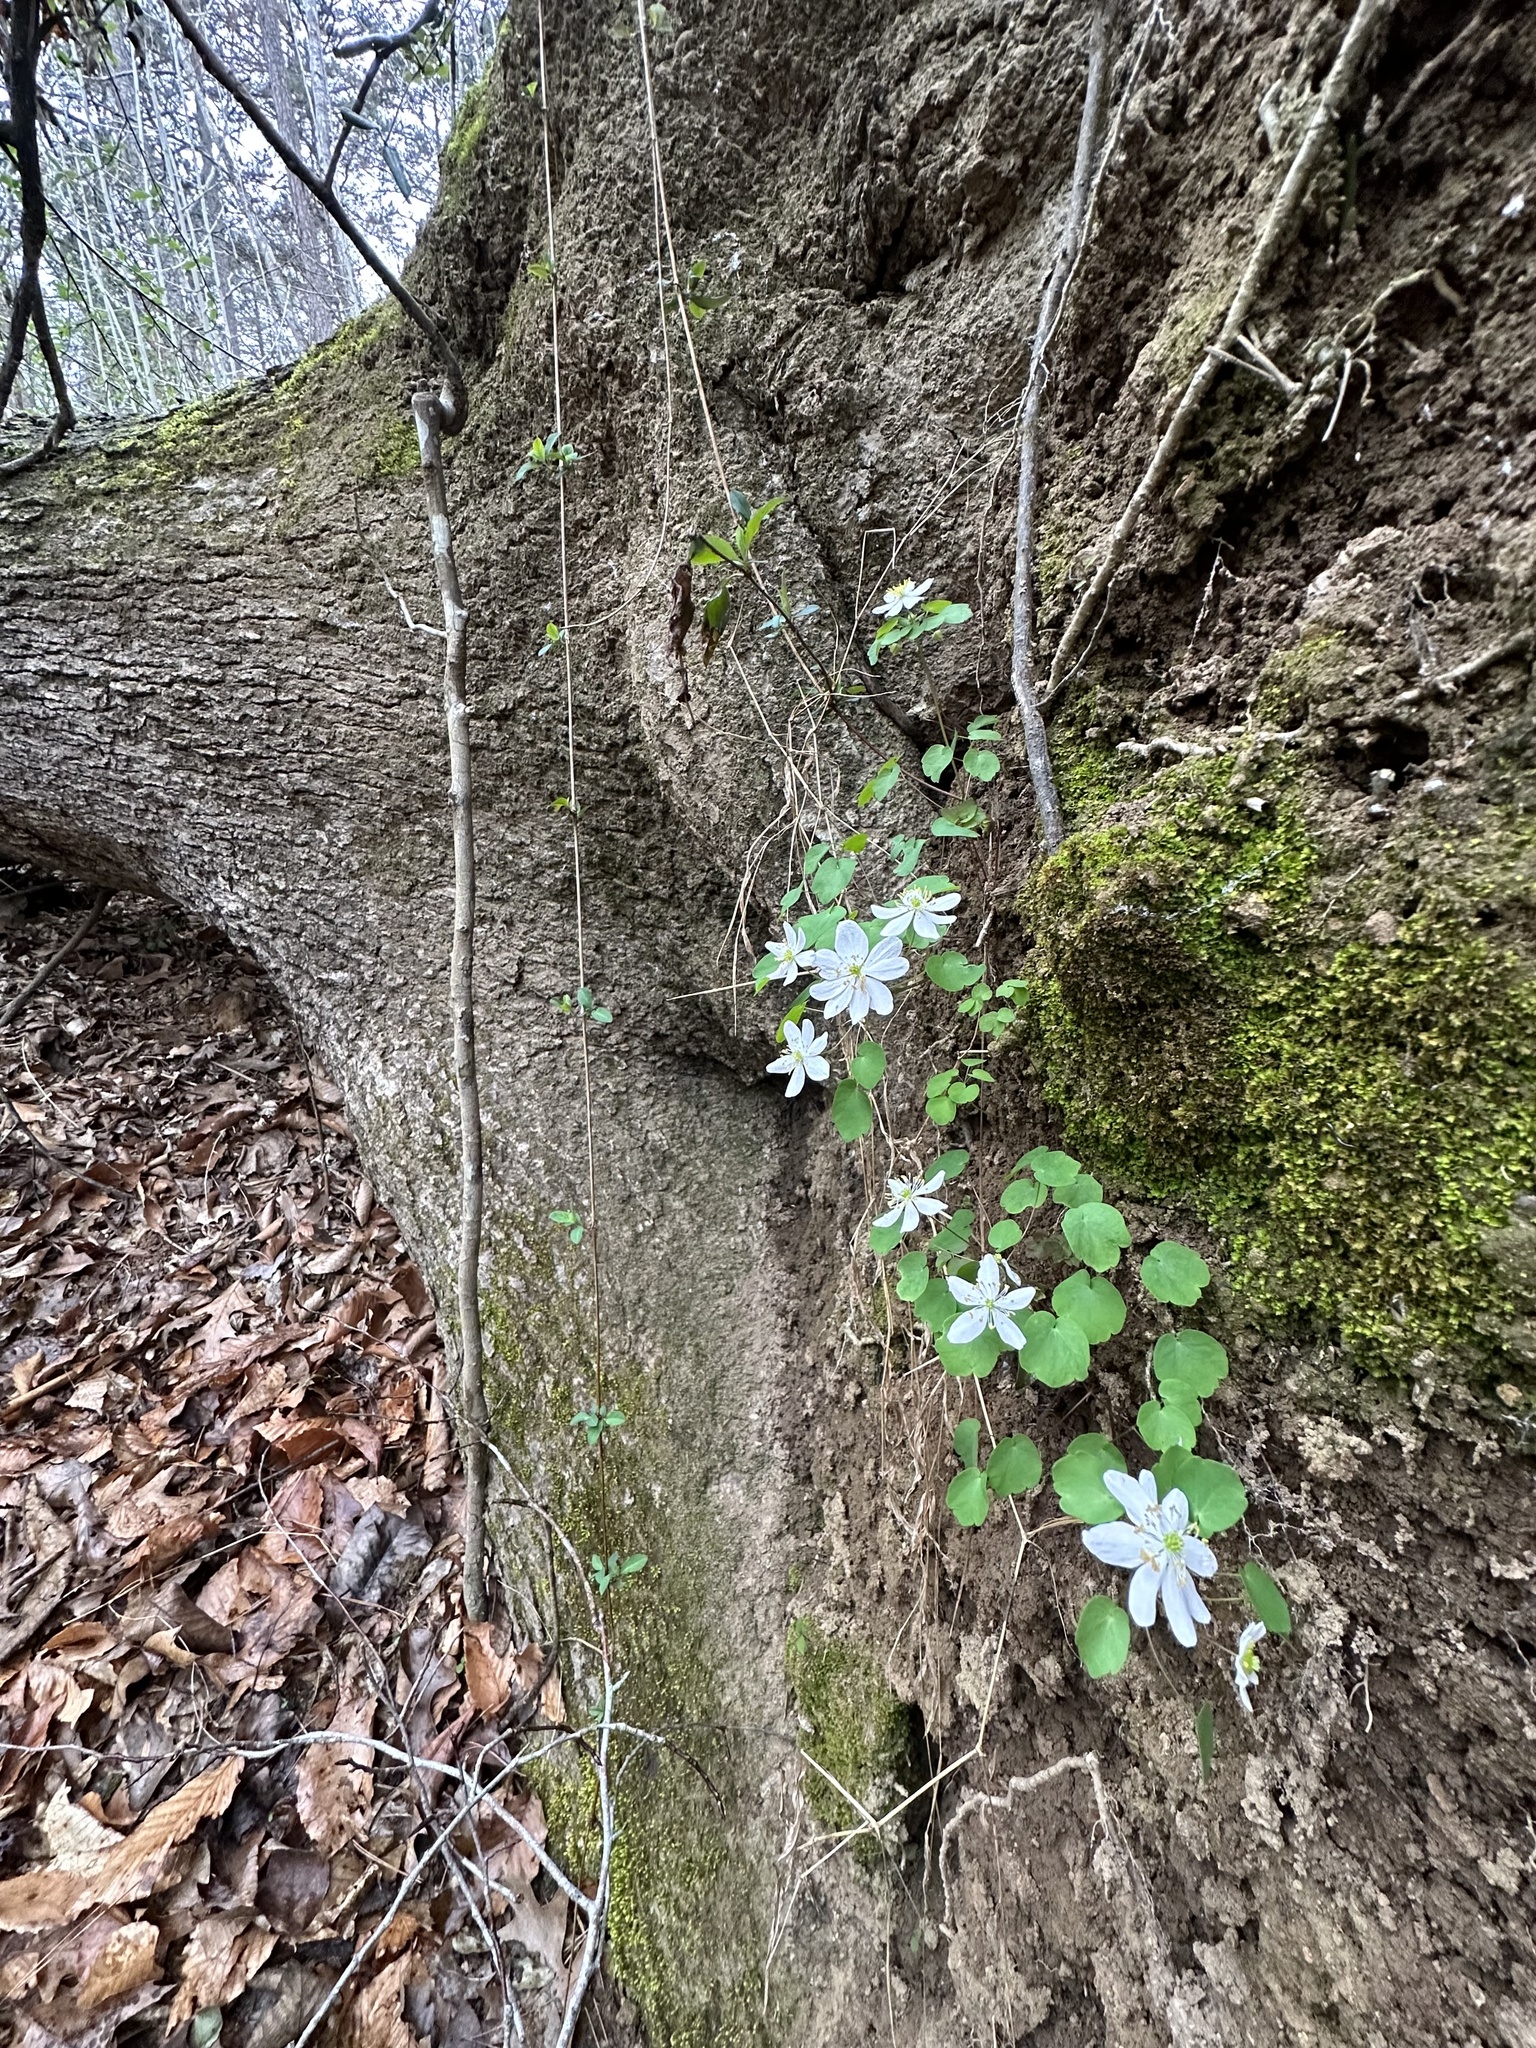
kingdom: Plantae
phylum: Tracheophyta
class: Magnoliopsida
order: Ranunculales
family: Ranunculaceae
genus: Thalictrum
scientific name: Thalictrum thalictroides
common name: Rue-anemone
